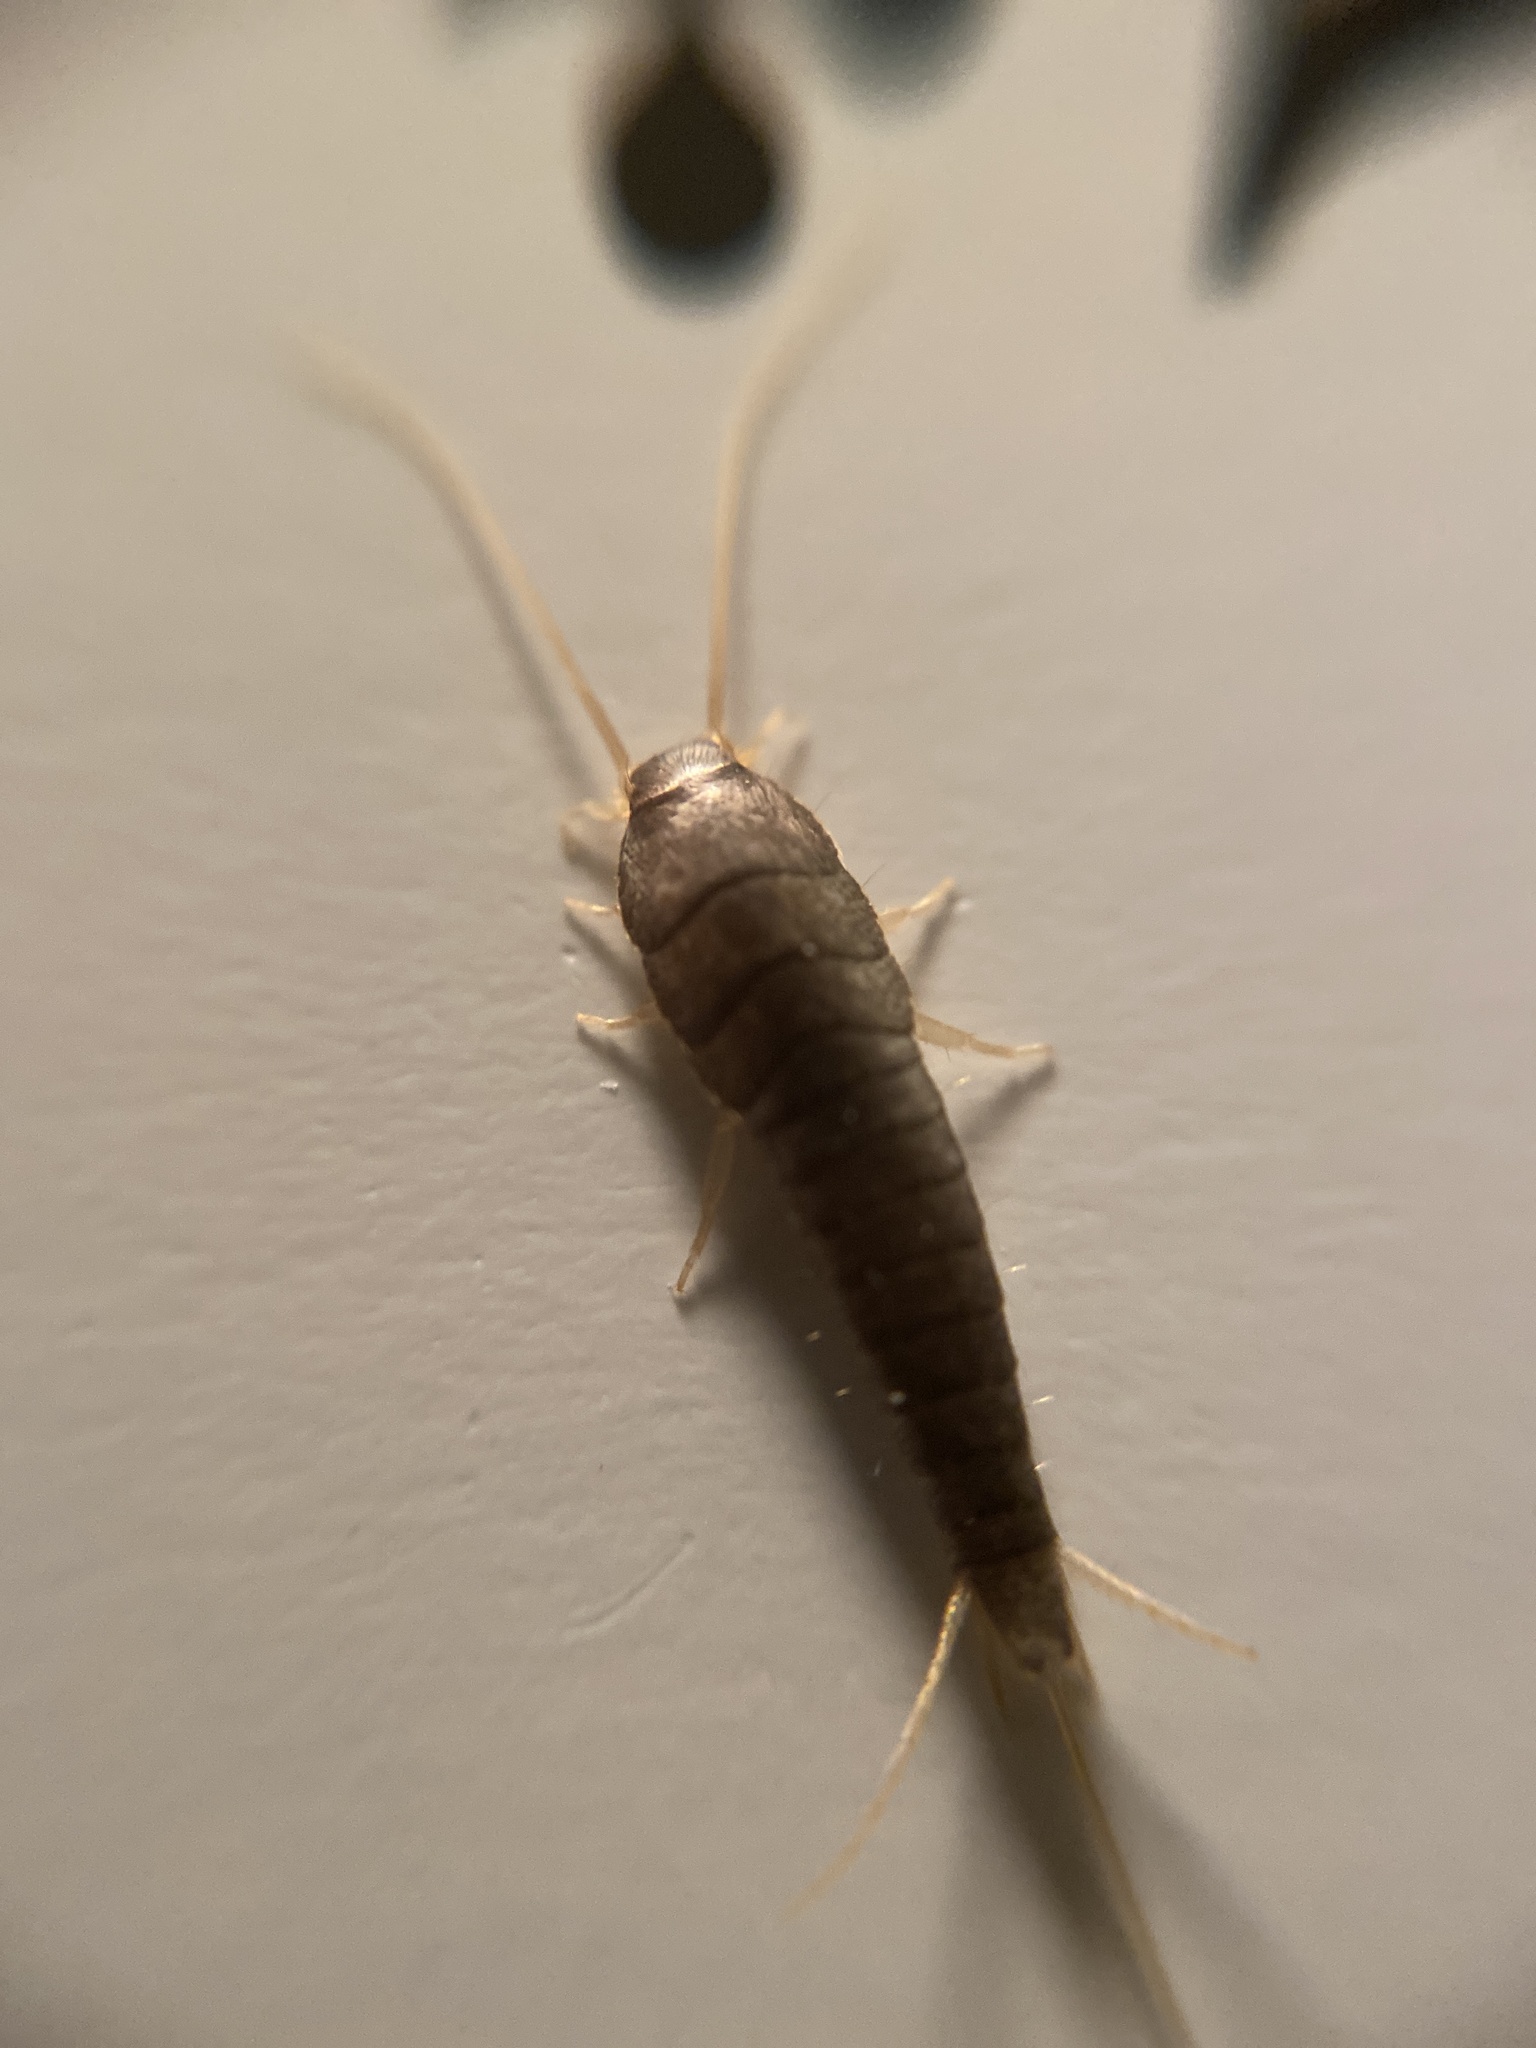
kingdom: Animalia
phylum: Arthropoda
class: Insecta
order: Zygentoma
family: Lepismatidae
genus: Lepisma
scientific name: Lepisma saccharinum
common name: Silverfish
